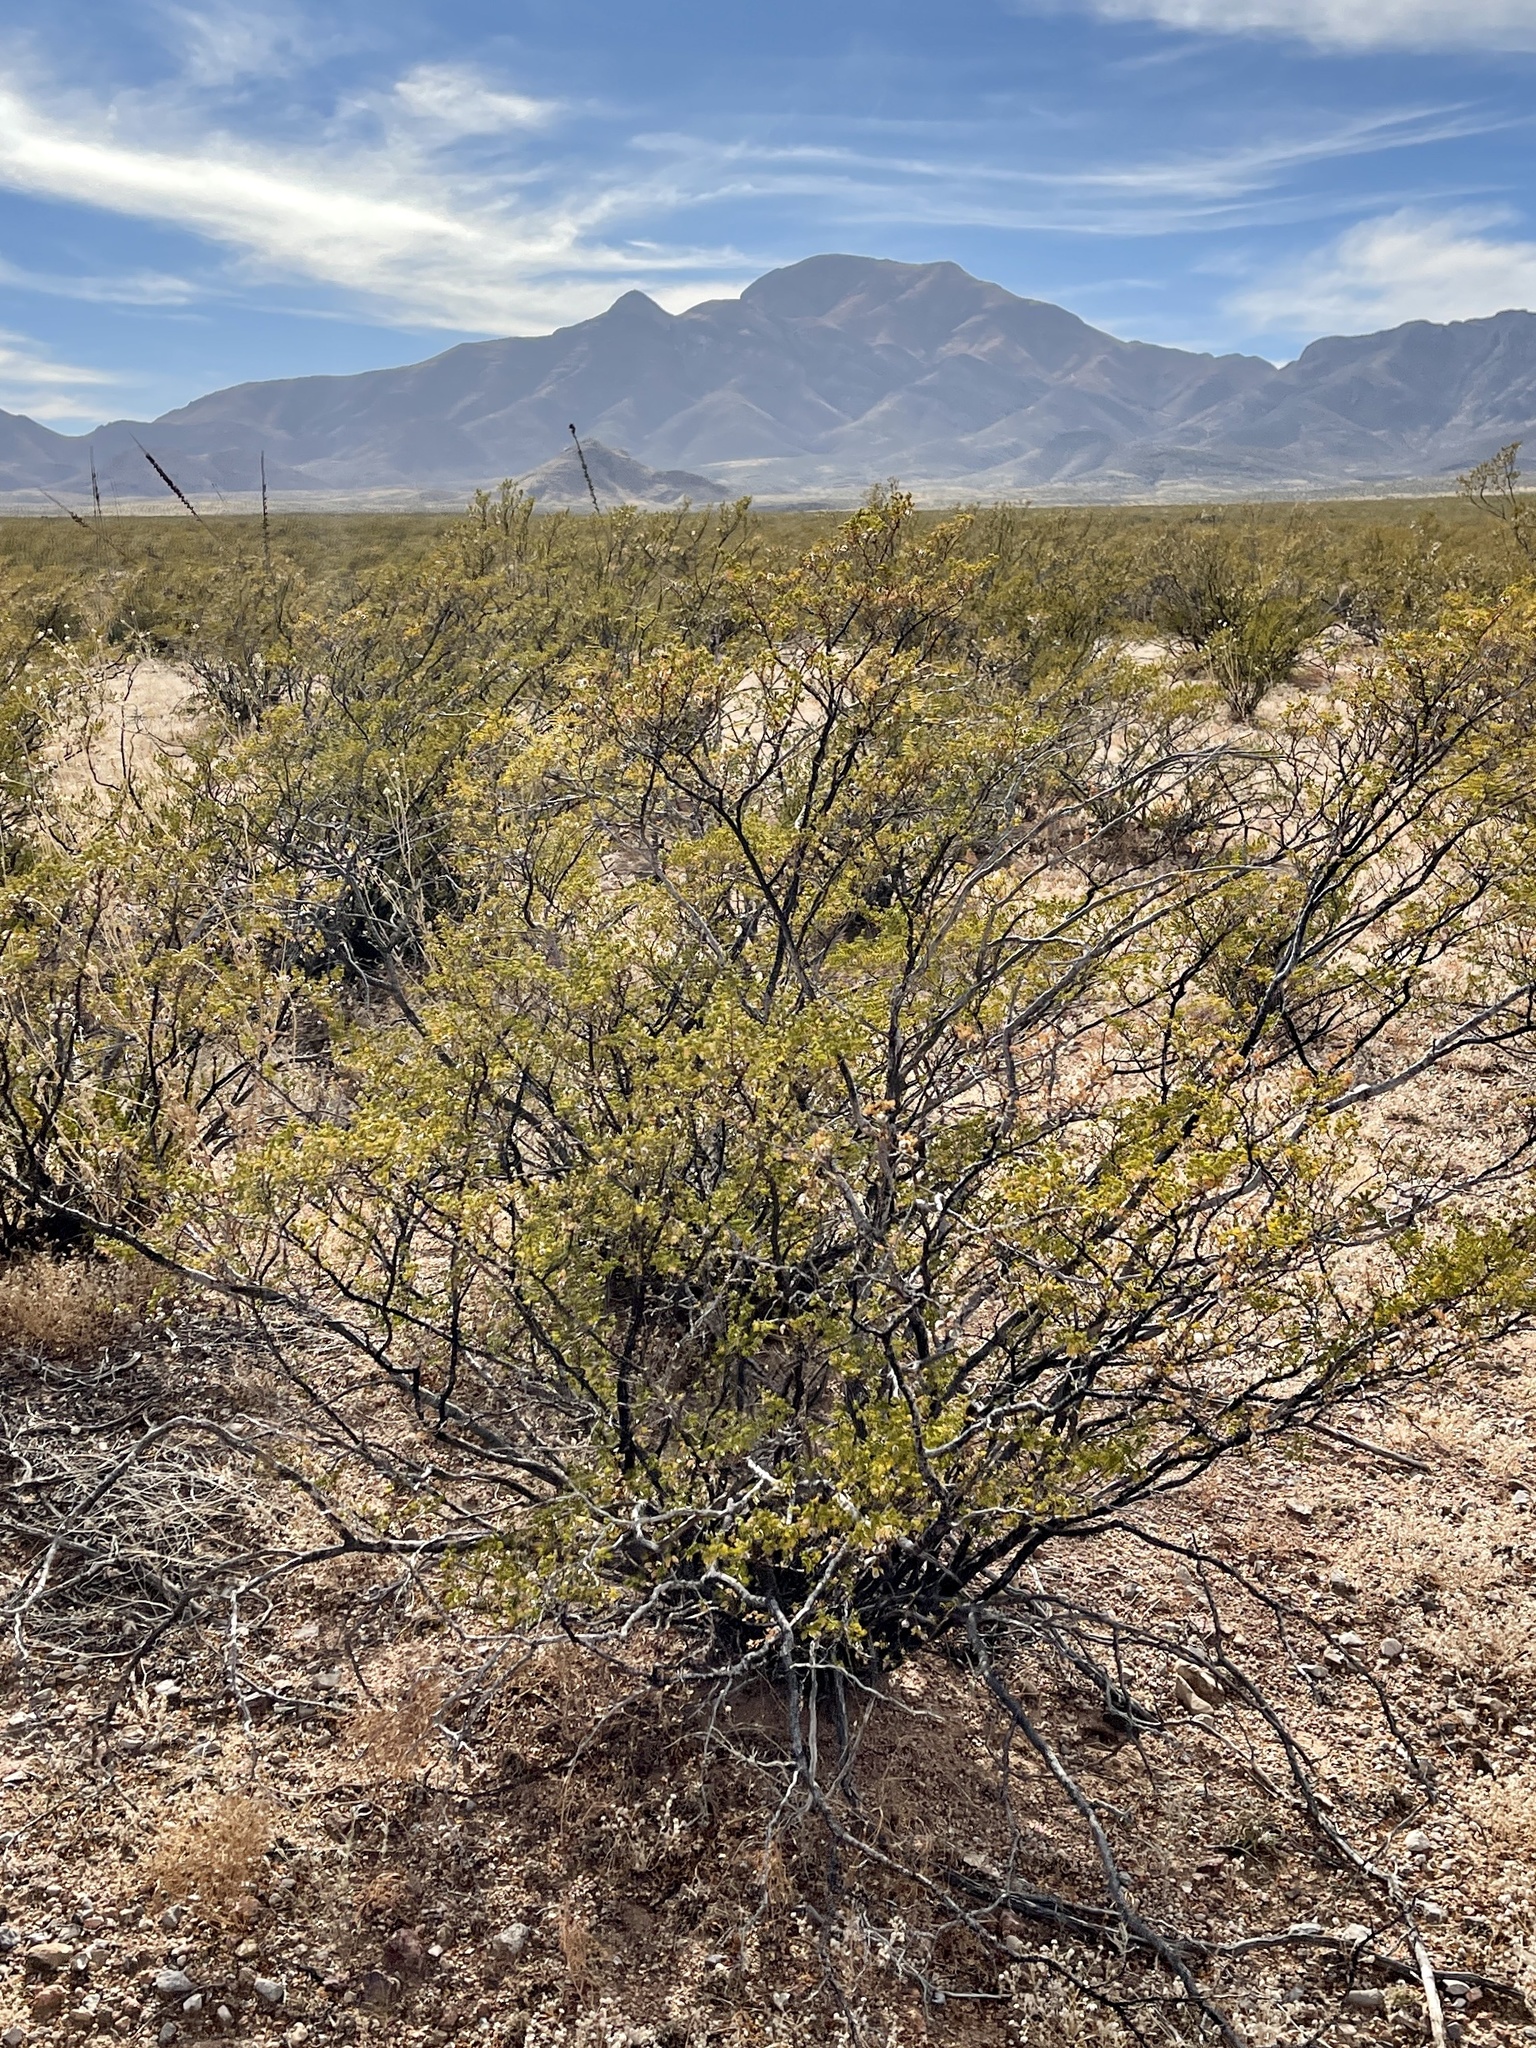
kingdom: Plantae
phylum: Tracheophyta
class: Magnoliopsida
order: Zygophyllales
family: Zygophyllaceae
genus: Larrea
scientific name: Larrea tridentata
